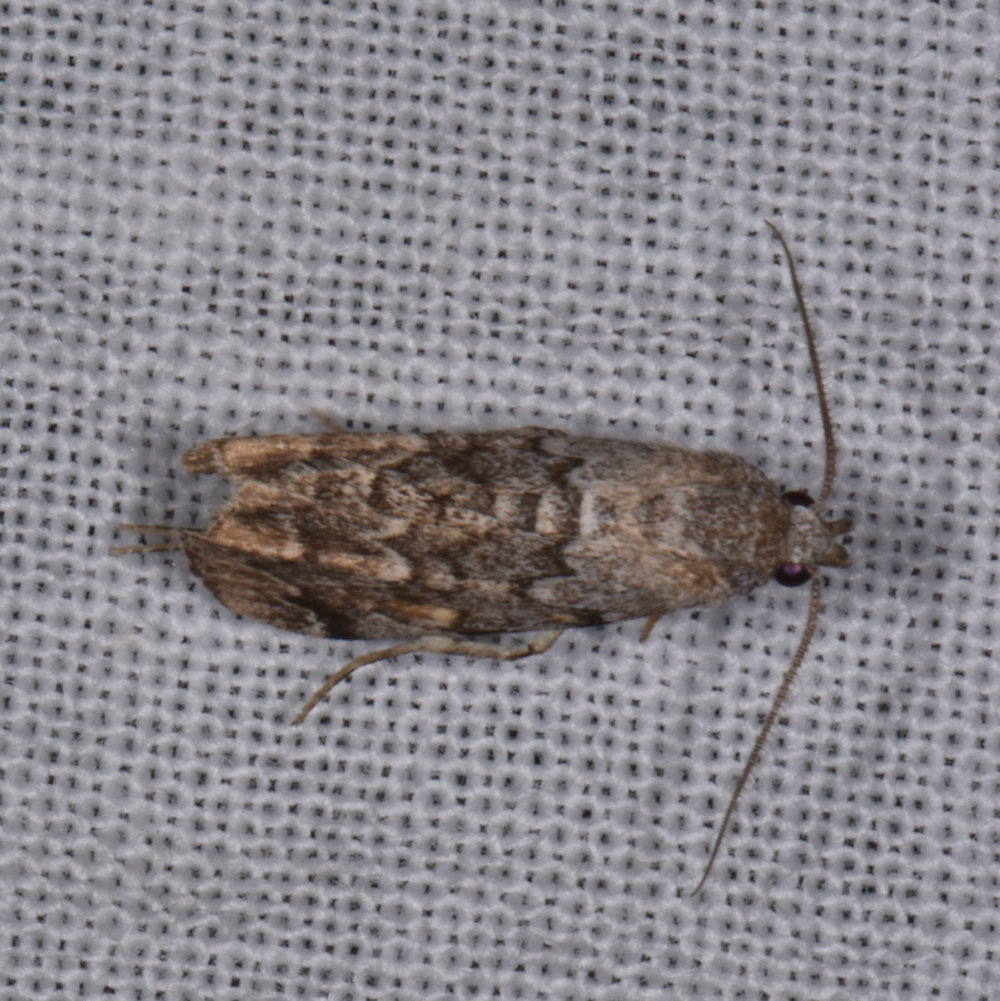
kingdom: Animalia
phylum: Arthropoda
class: Insecta
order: Lepidoptera
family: Erebidae
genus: Idia
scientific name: Idia americalis
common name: American idia moth
